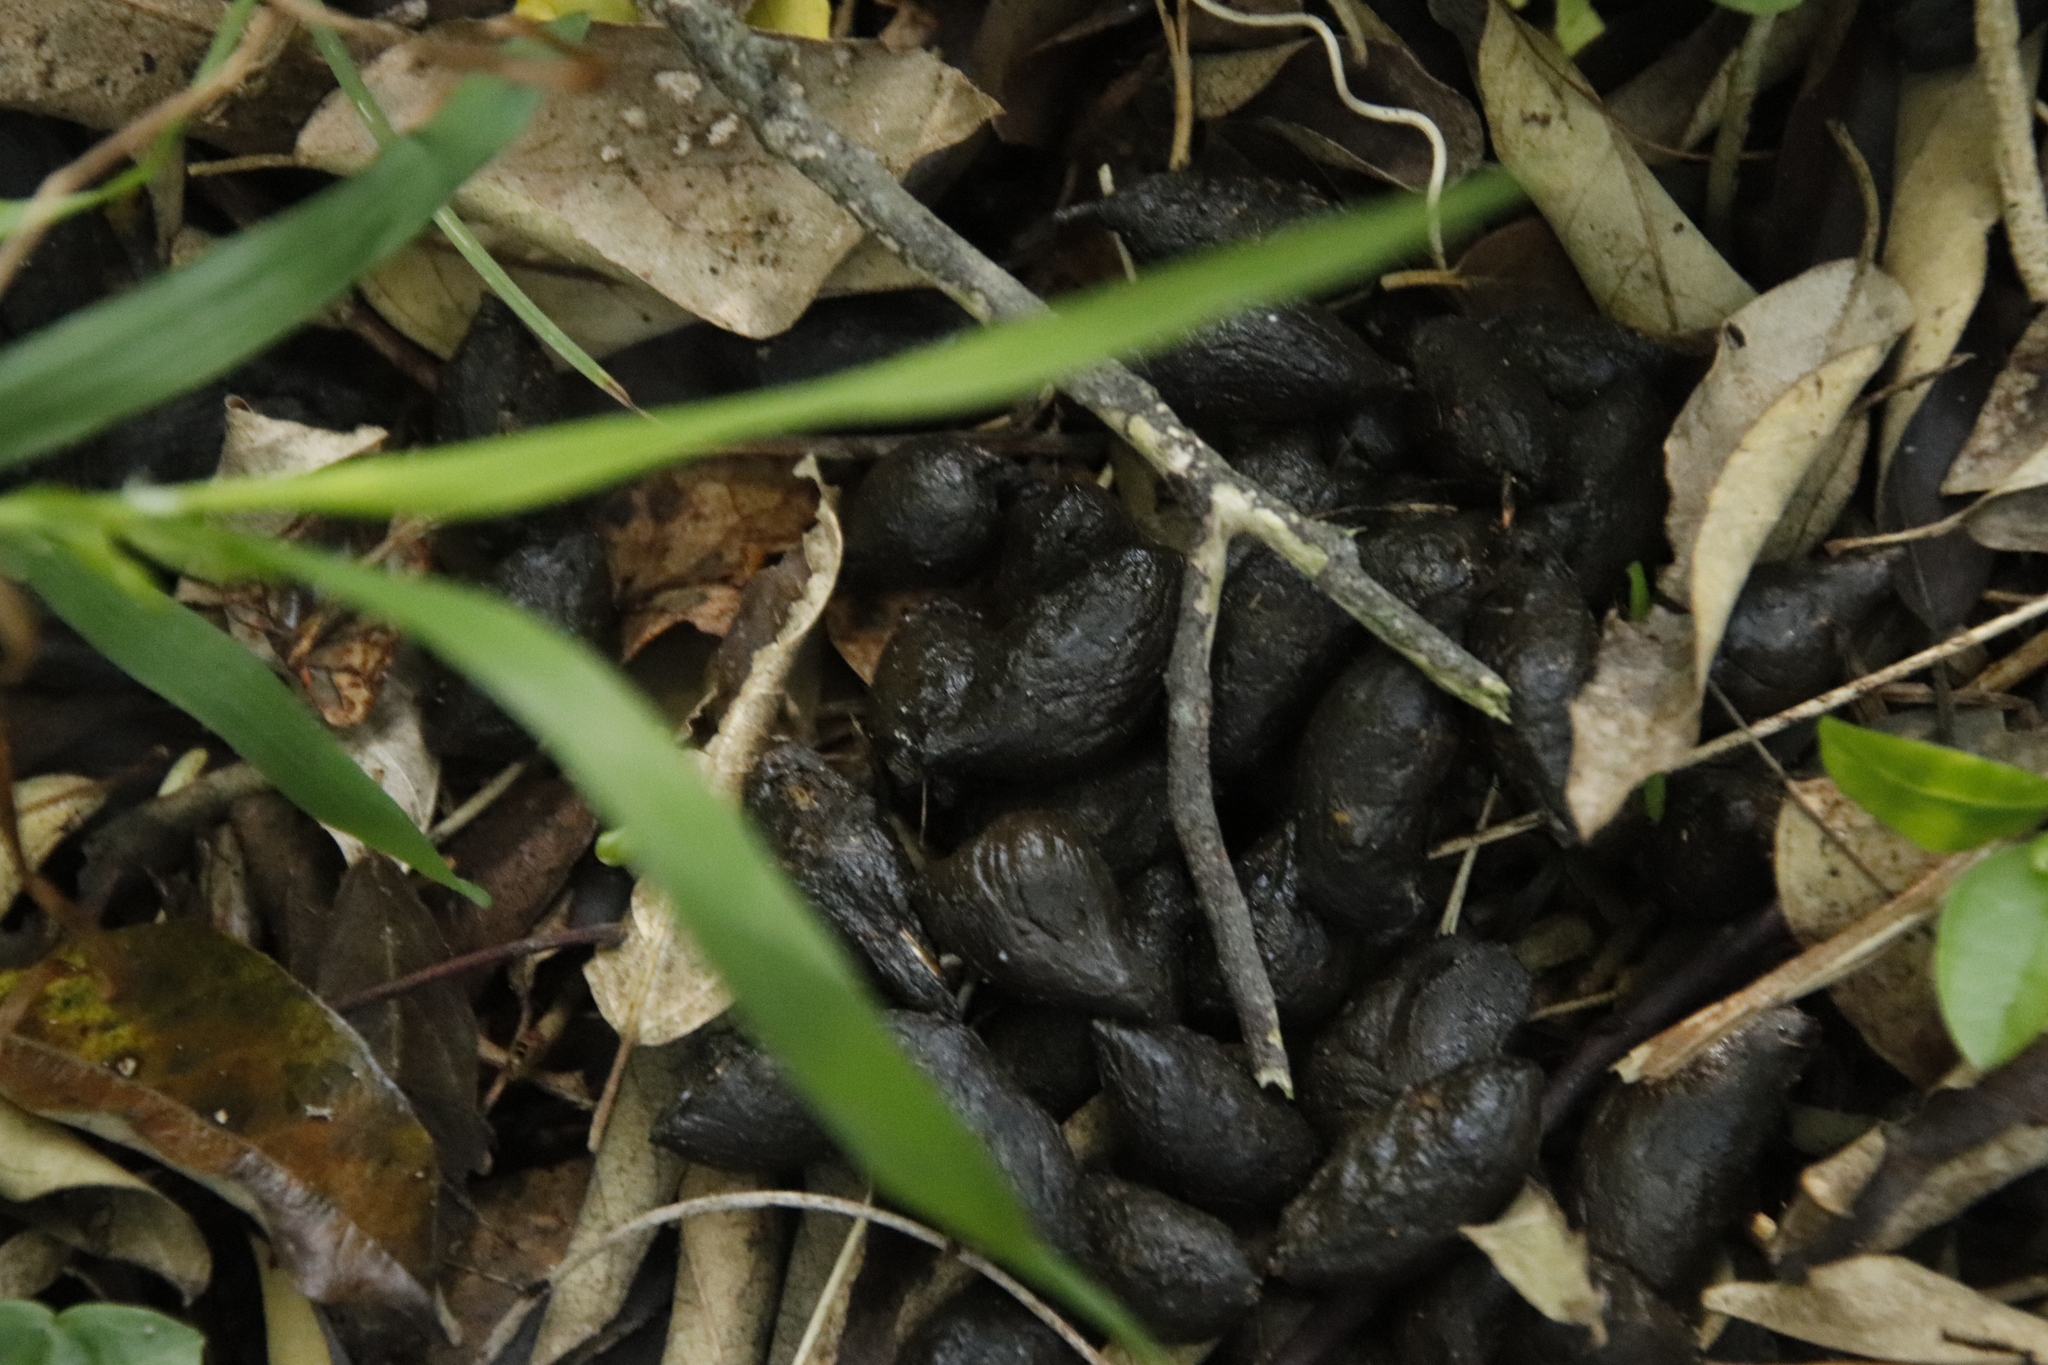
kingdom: Animalia
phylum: Chordata
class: Mammalia
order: Rodentia
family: Hystricidae
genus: Hystrix
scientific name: Hystrix africaeaustralis
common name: Cape porcupine
